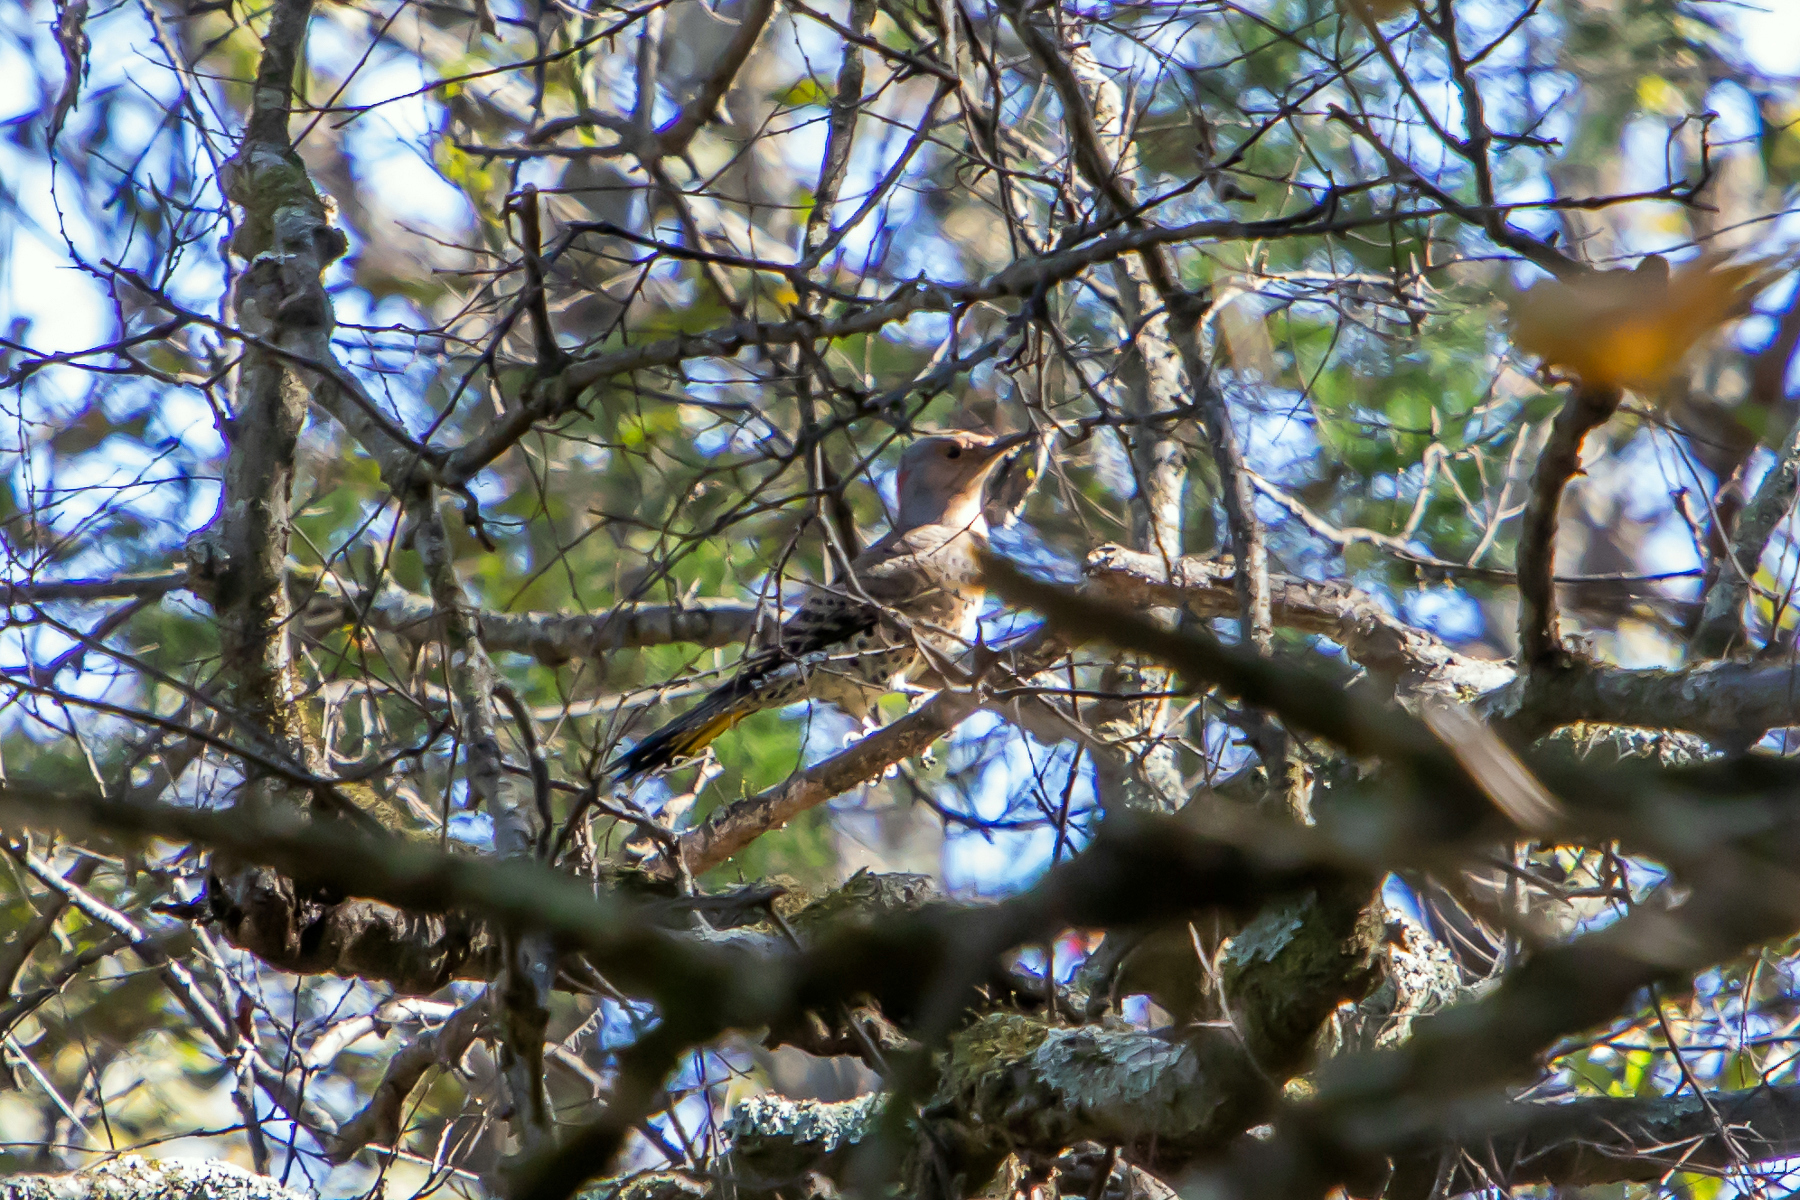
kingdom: Animalia
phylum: Chordata
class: Aves
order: Piciformes
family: Picidae
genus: Colaptes
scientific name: Colaptes auratus
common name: Northern flicker
